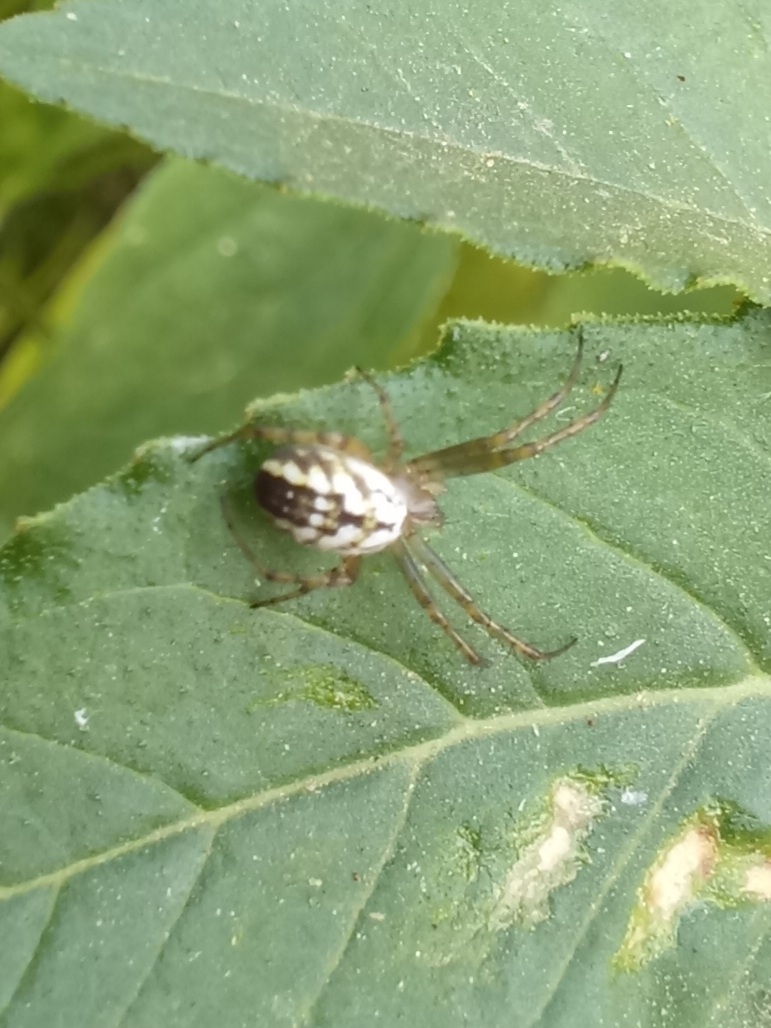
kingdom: Animalia
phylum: Arthropoda
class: Arachnida
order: Araneae
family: Araneidae
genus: Mangora
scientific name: Mangora acalypha
